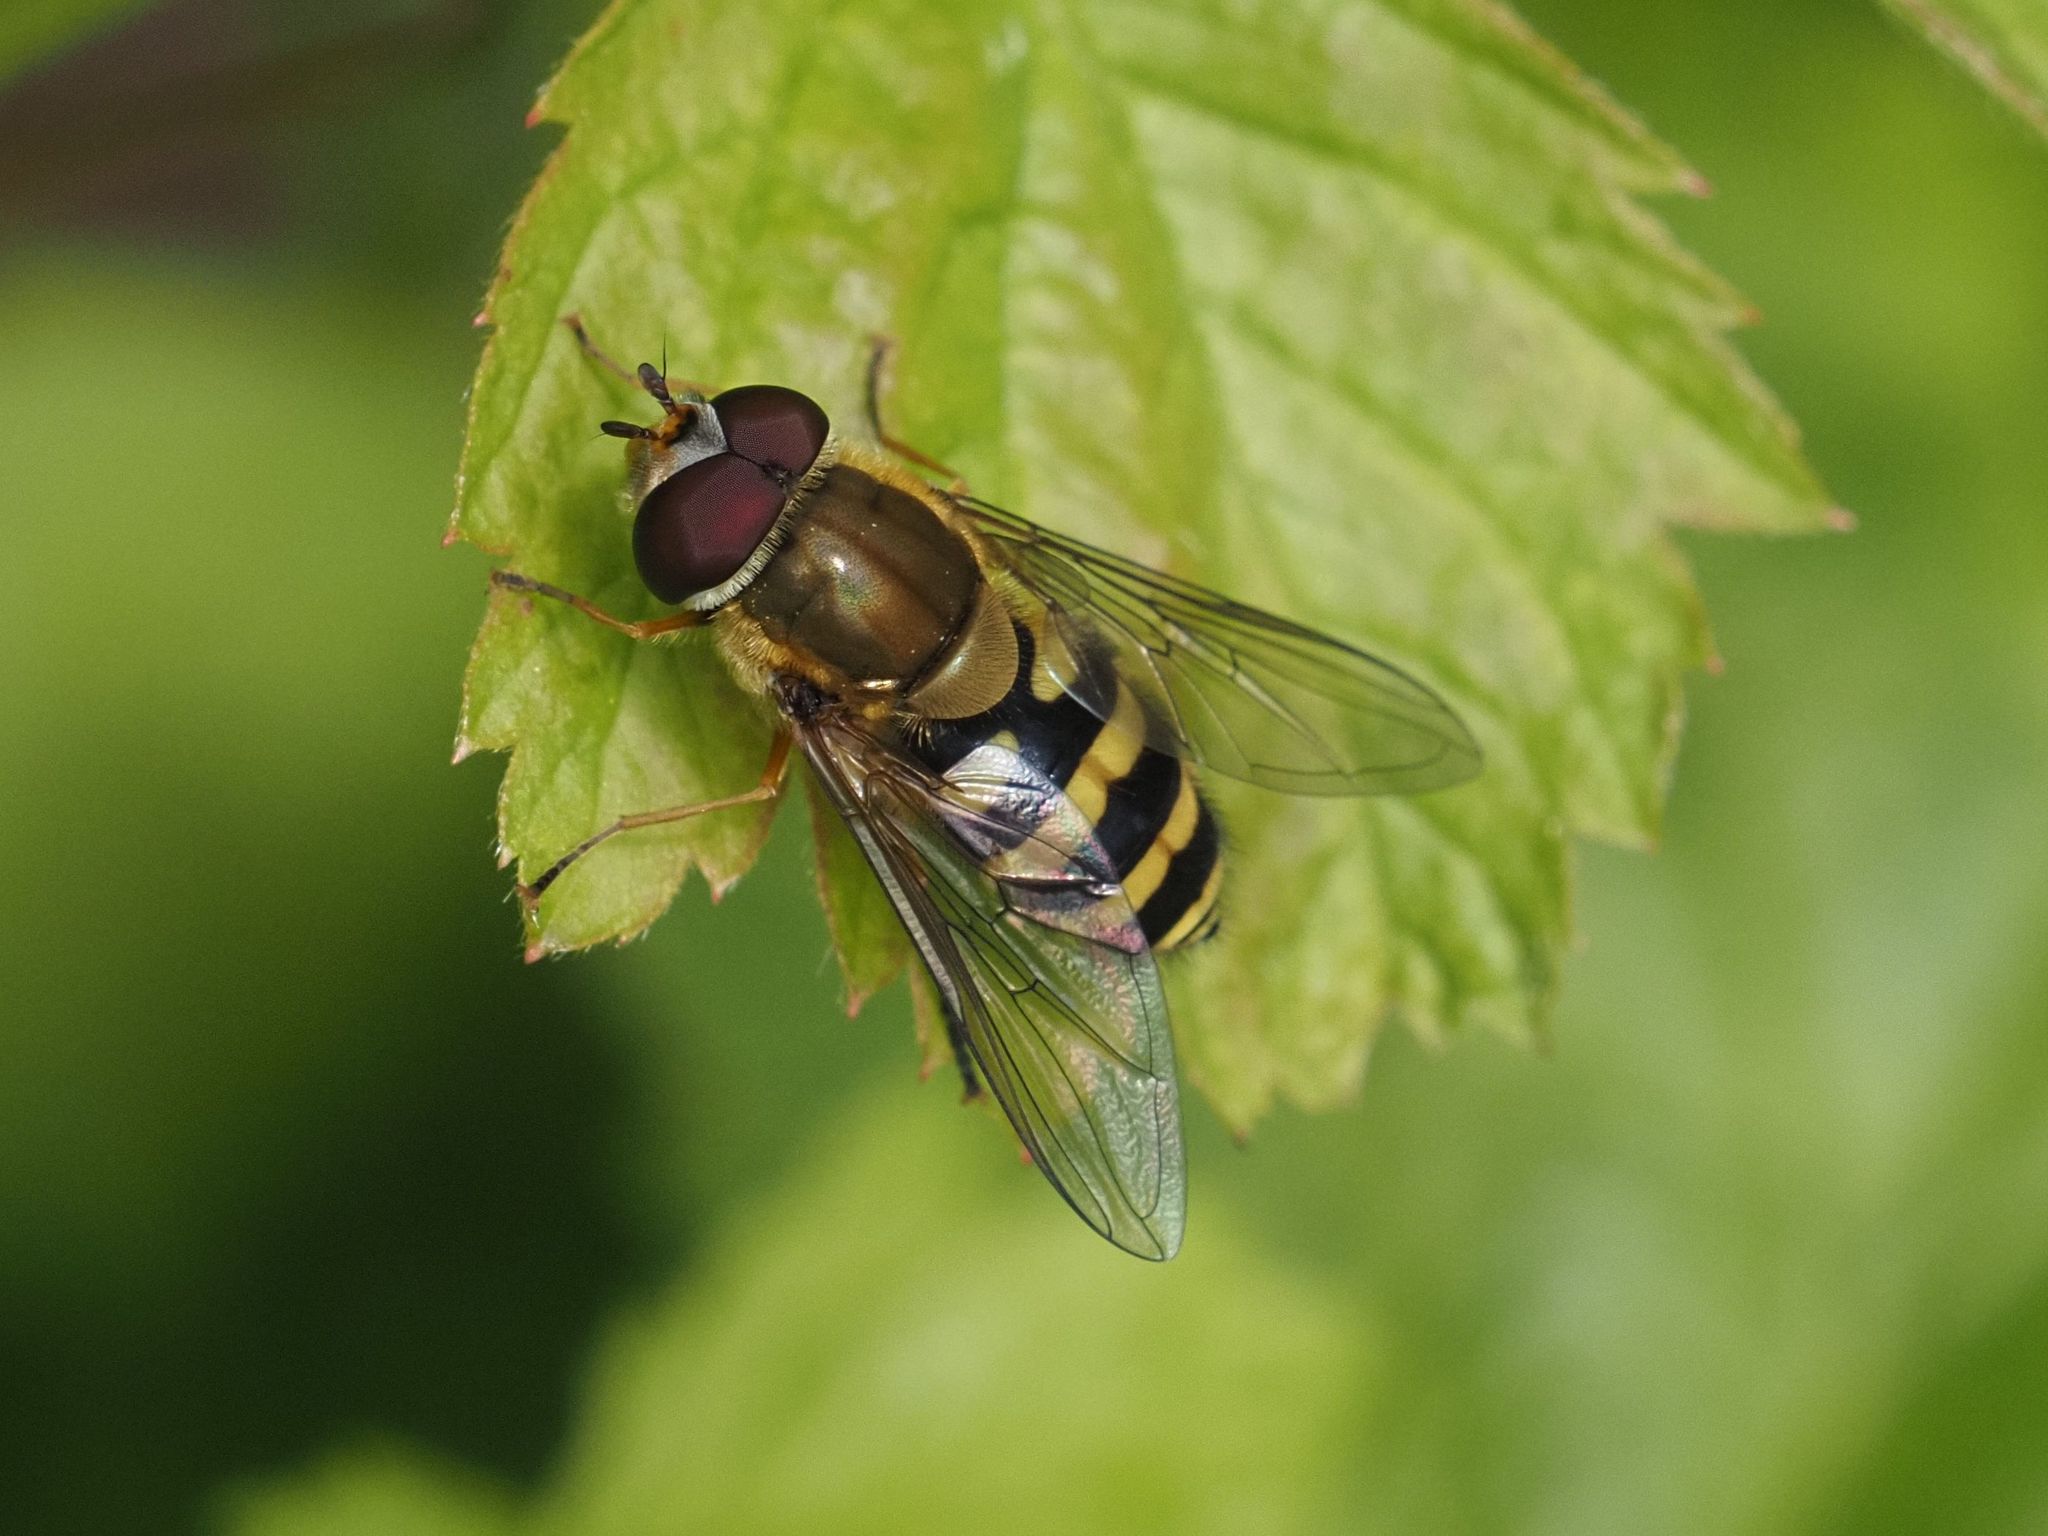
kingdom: Animalia
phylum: Arthropoda
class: Insecta
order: Diptera
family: Syrphidae
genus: Syrphus
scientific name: Syrphus
